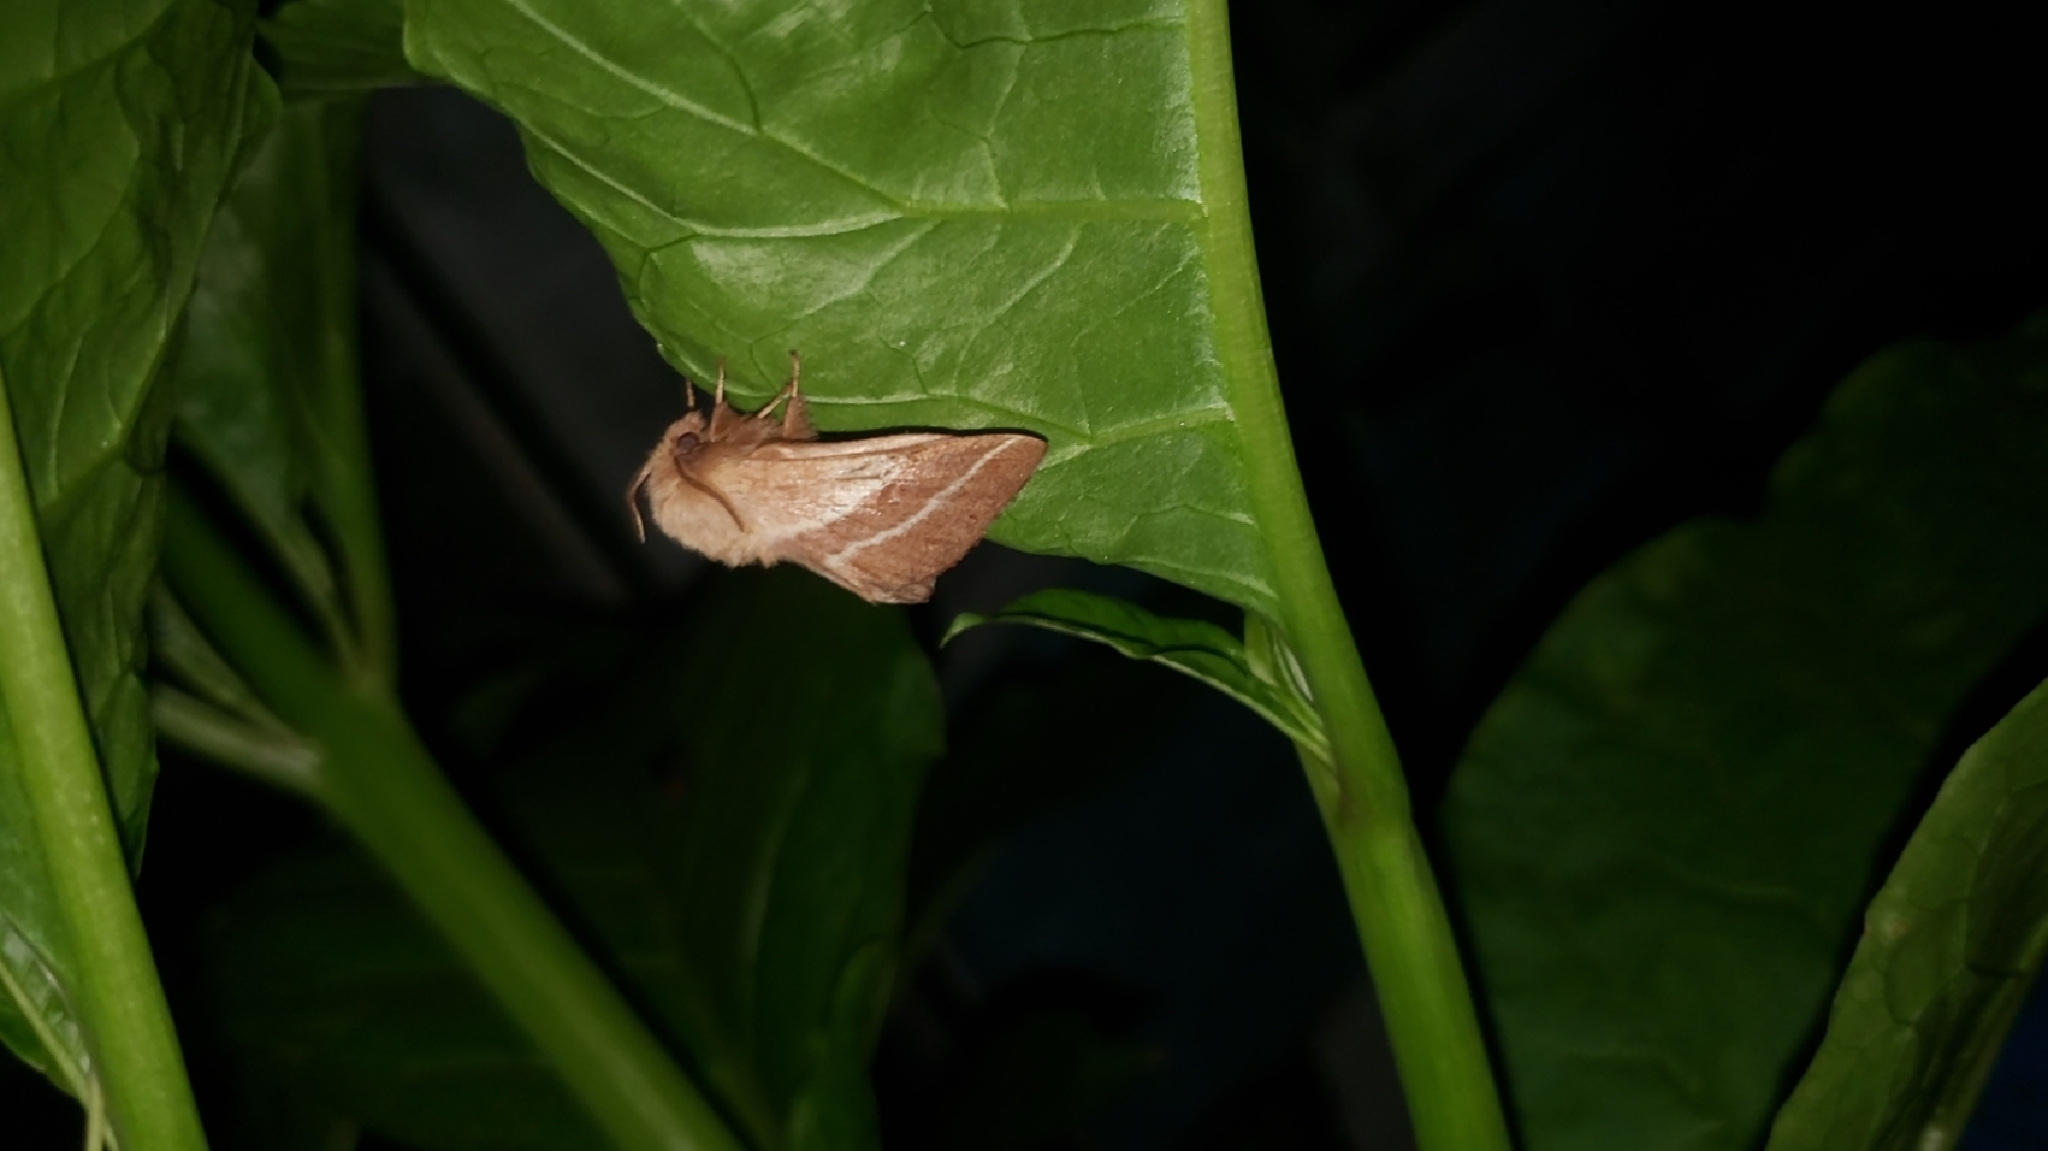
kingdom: Animalia
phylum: Arthropoda
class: Insecta
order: Lepidoptera
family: Lasiocampidae
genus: Malacosoma
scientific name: Malacosoma americana
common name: Eastern tent caterpillar moth
